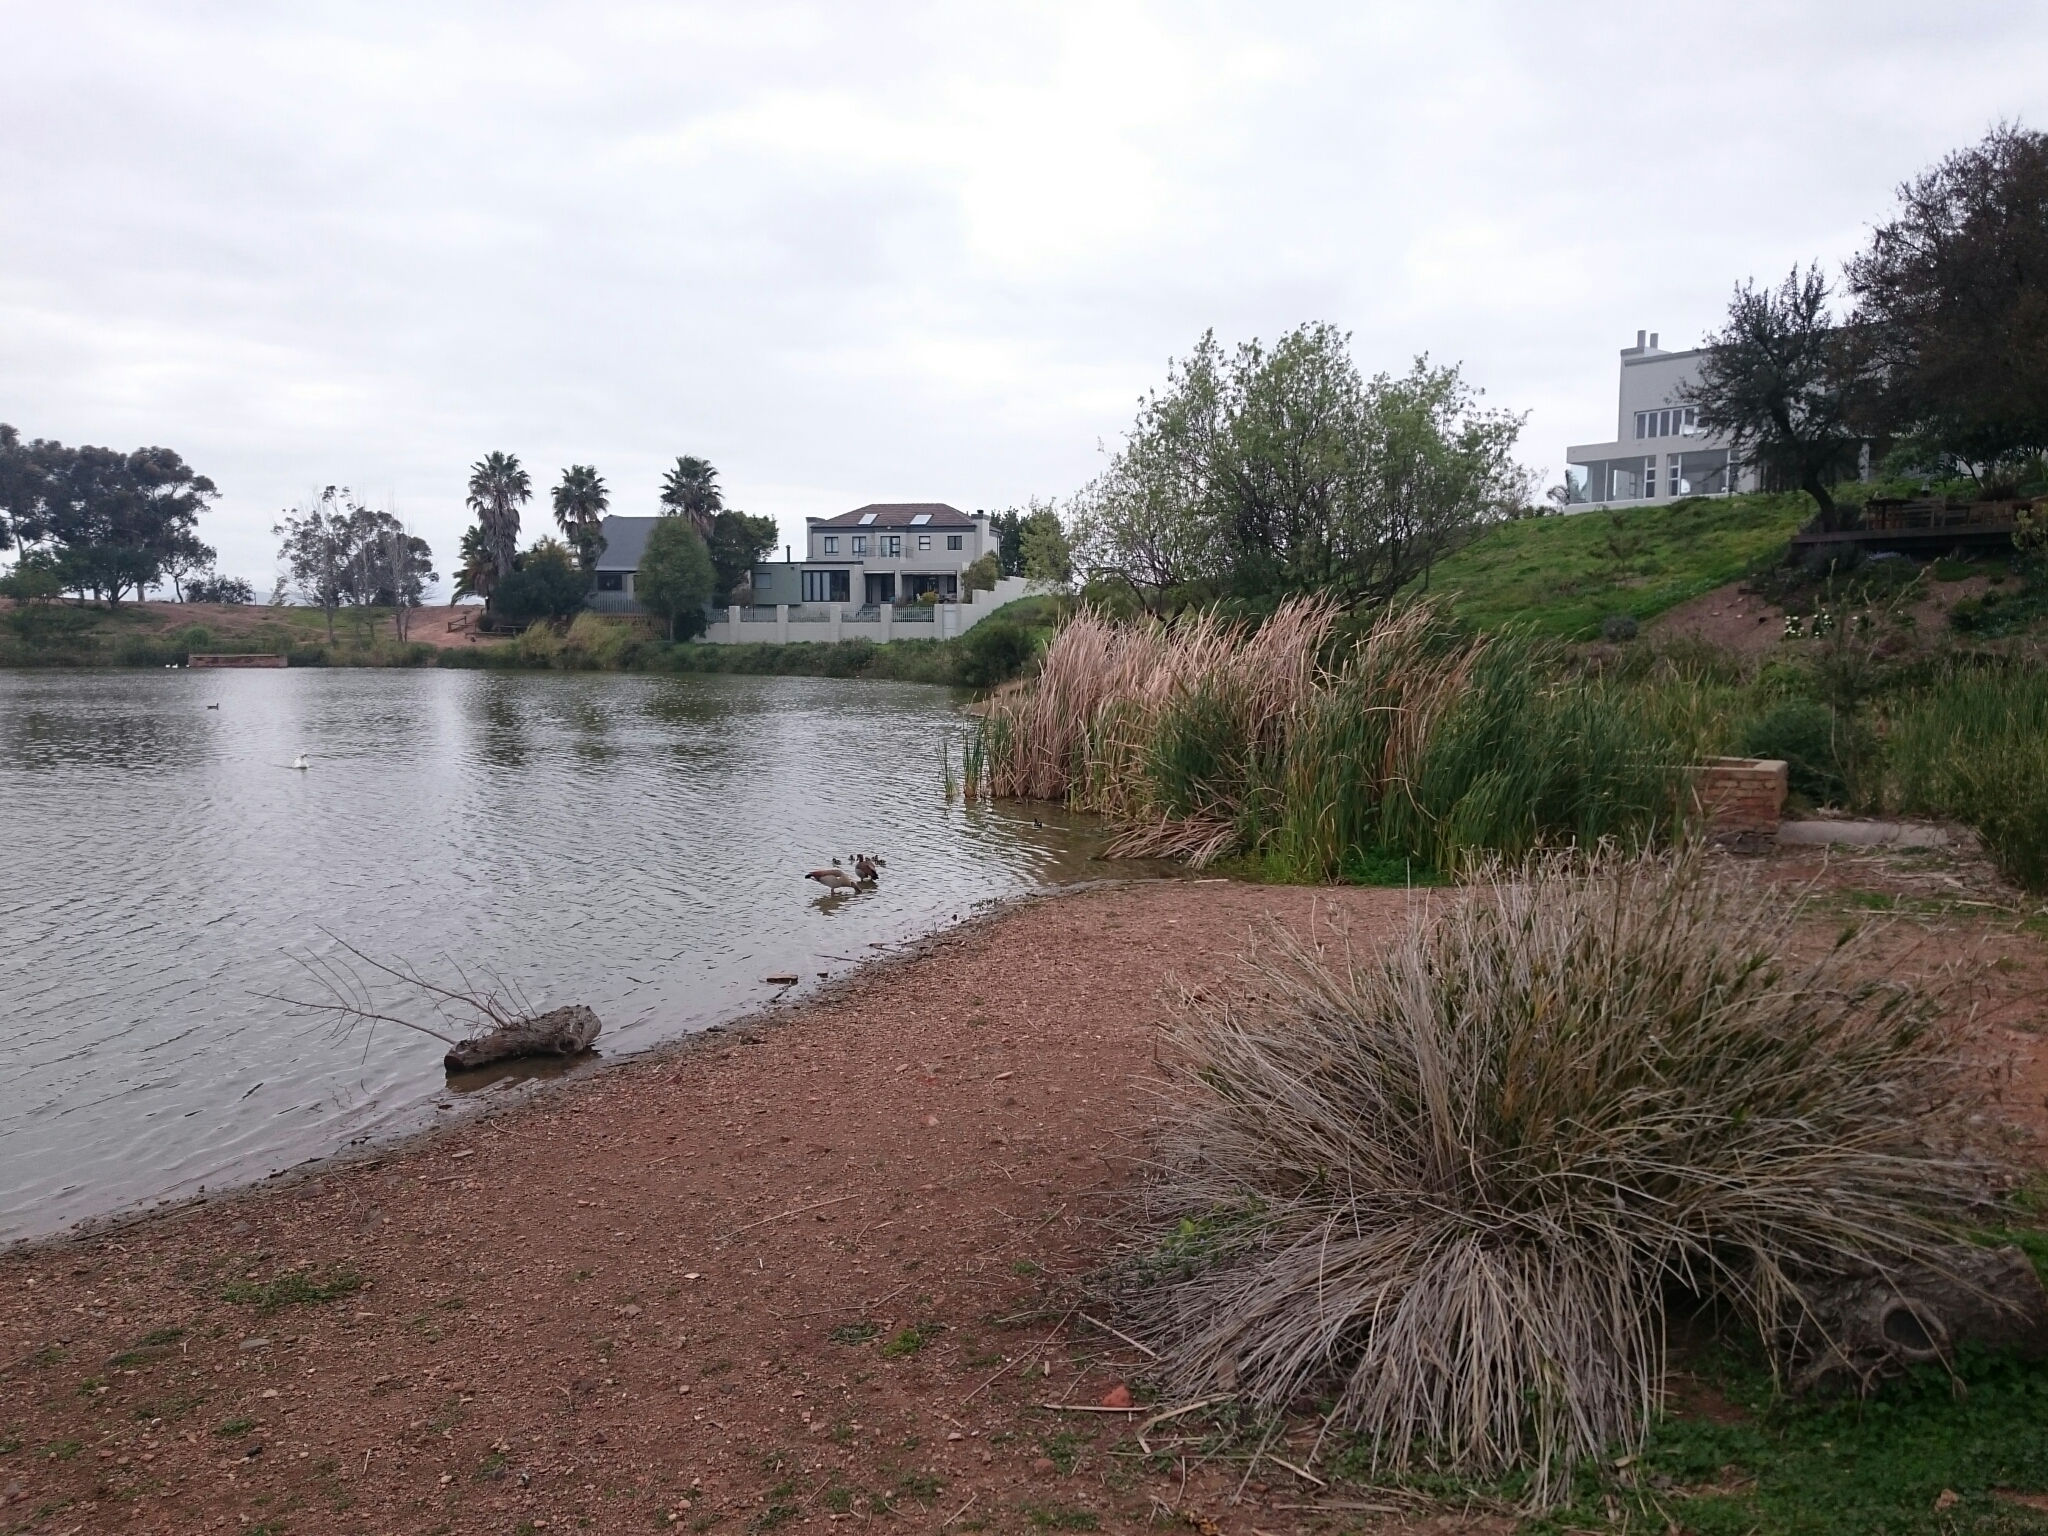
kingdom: Animalia
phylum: Chordata
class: Aves
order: Gruiformes
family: Rallidae
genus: Gallinula
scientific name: Gallinula chloropus
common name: Common moorhen
